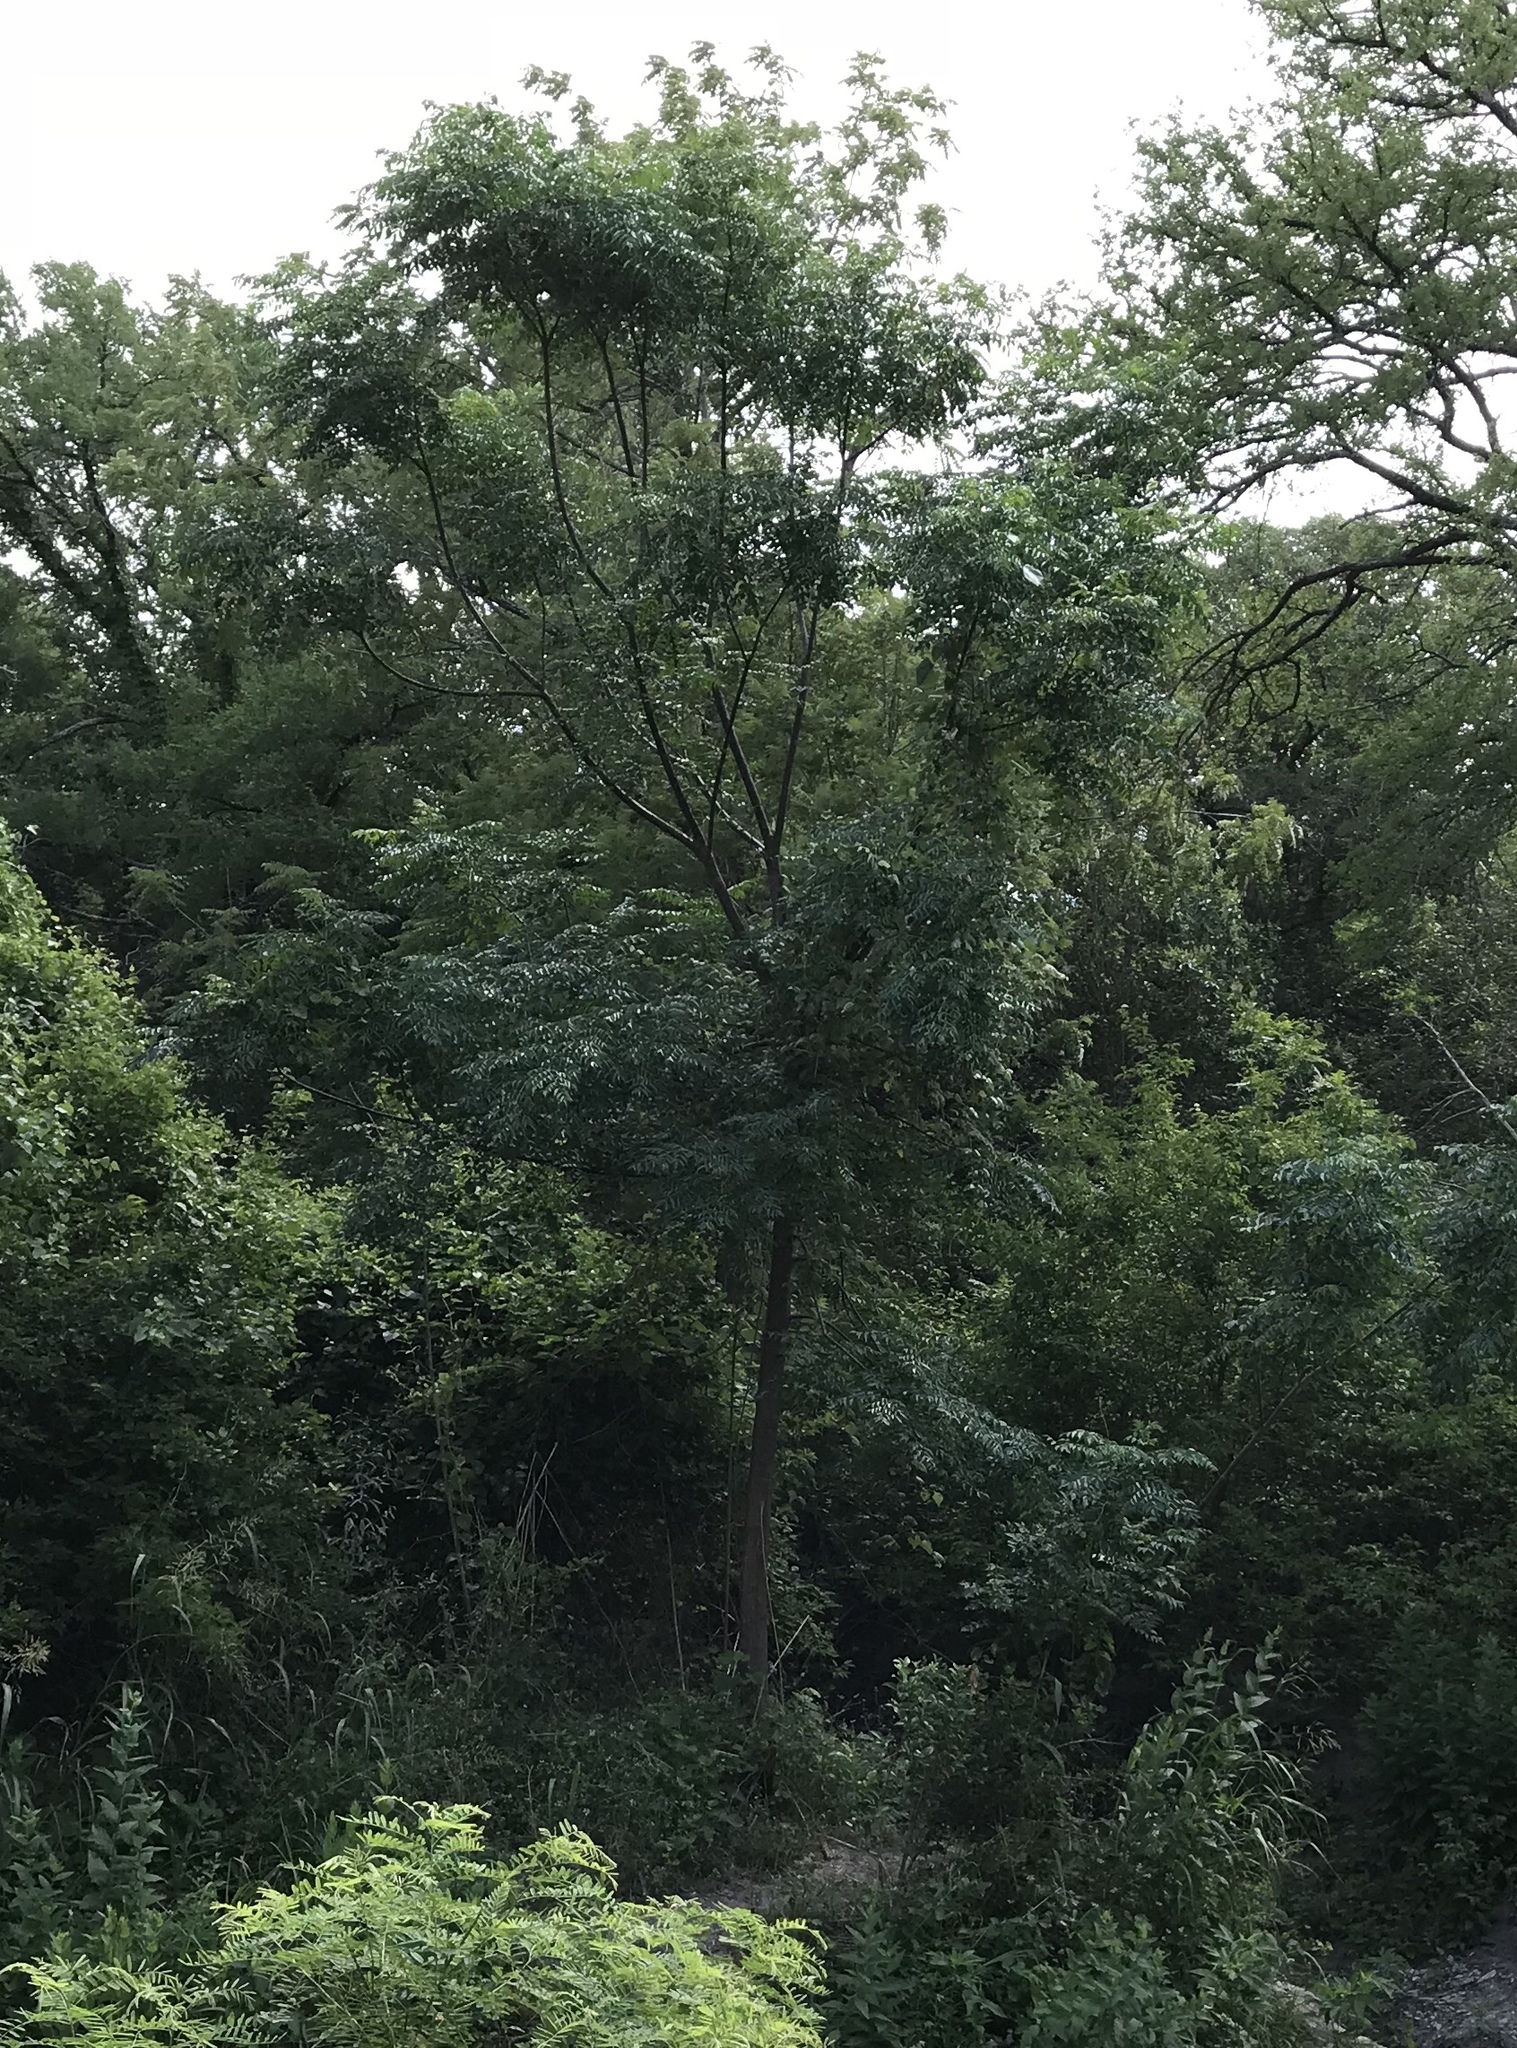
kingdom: Plantae
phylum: Tracheophyta
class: Magnoliopsida
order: Sapindales
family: Meliaceae
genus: Melia
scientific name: Melia azedarach
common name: Chinaberrytree
